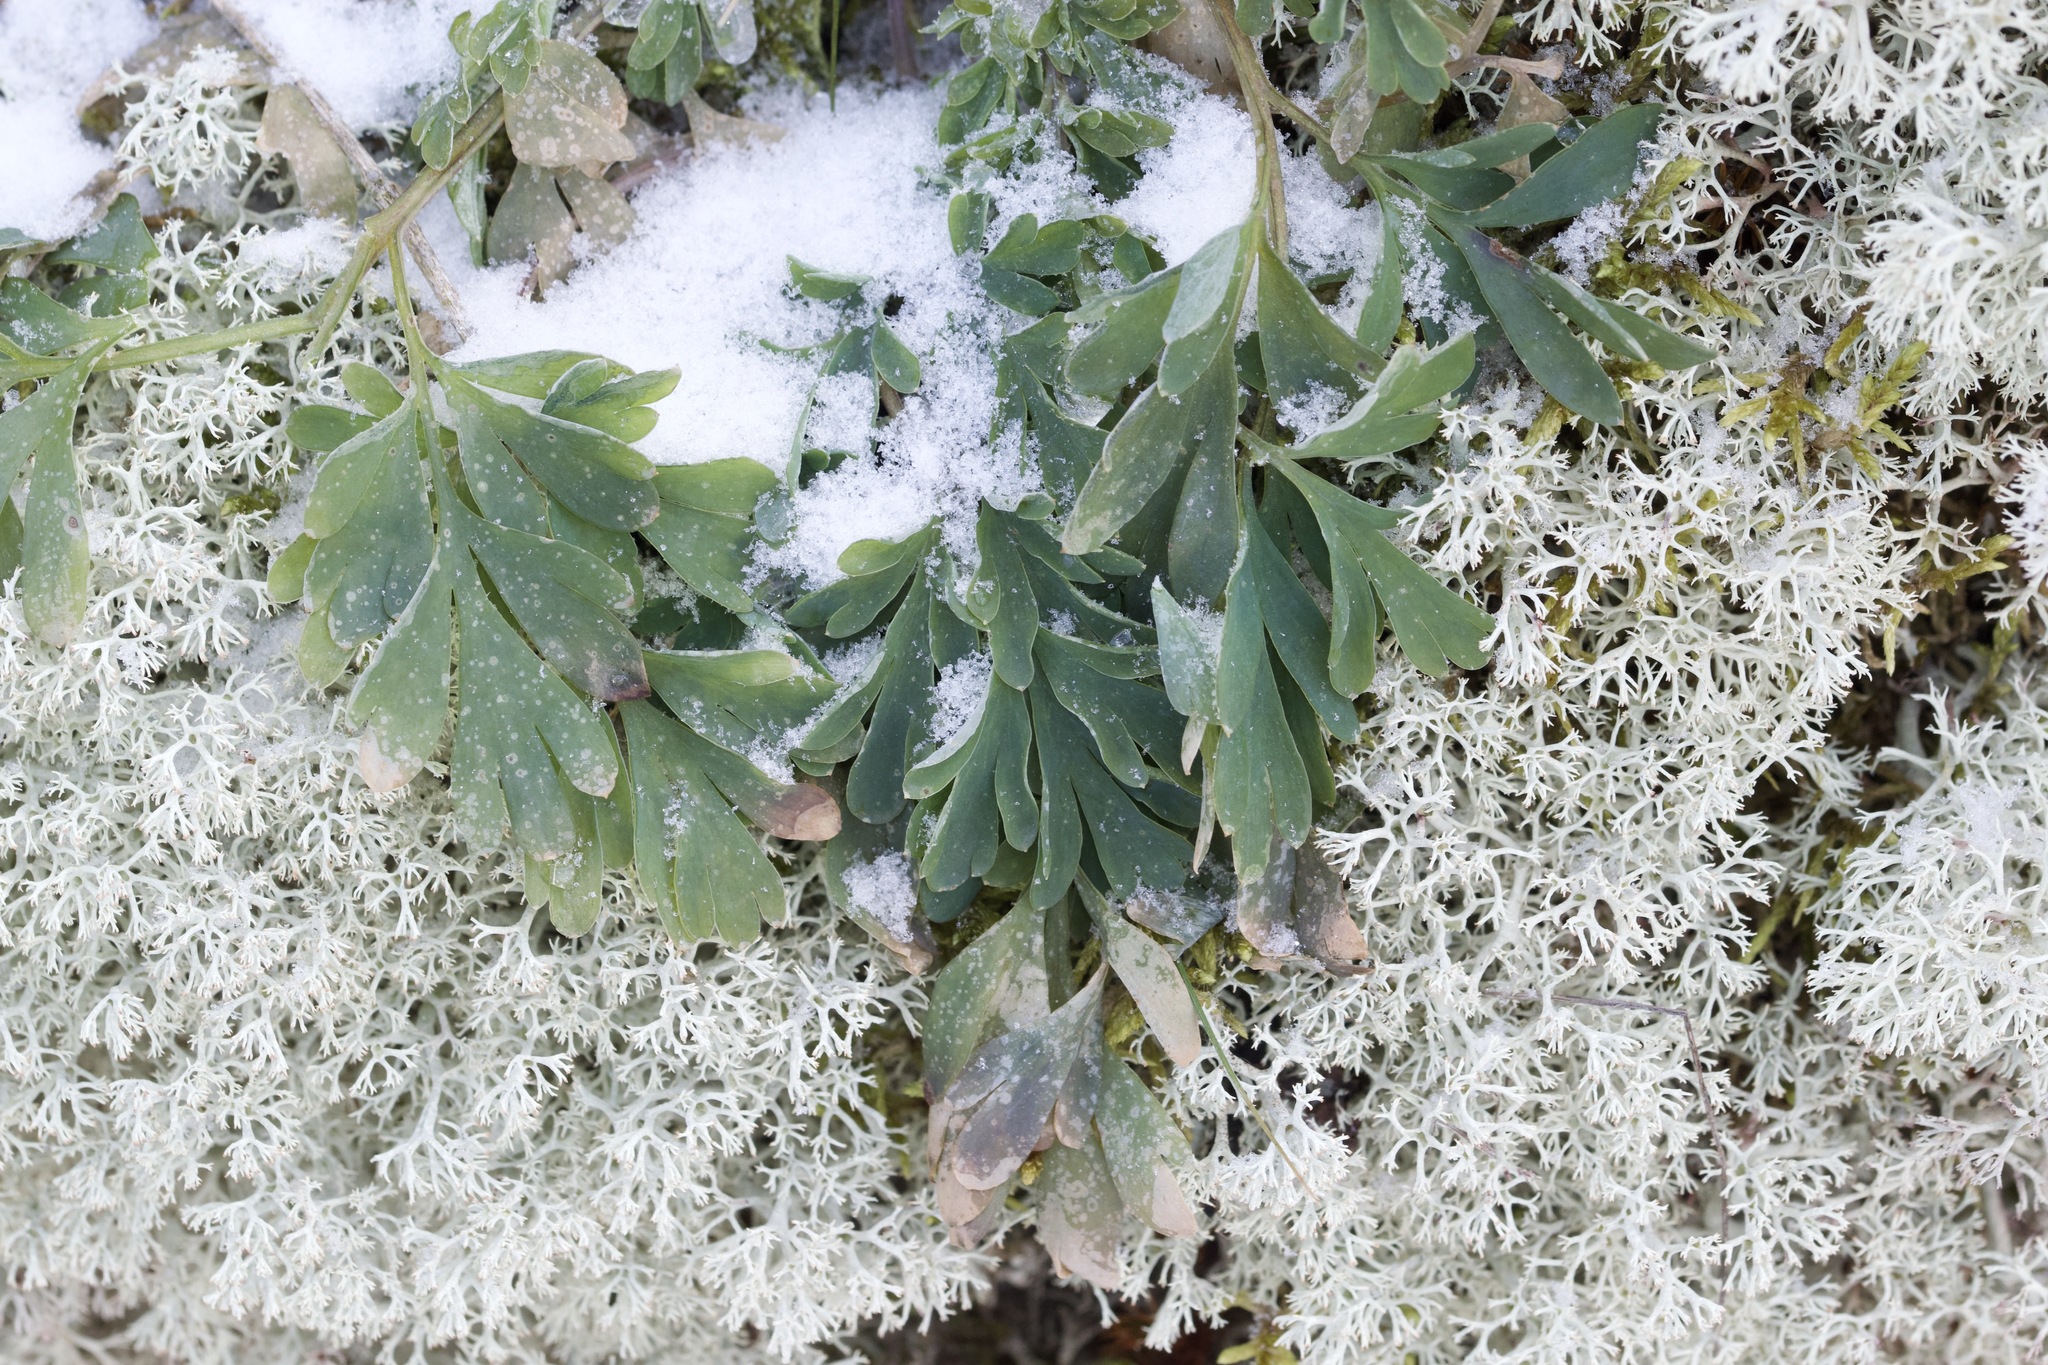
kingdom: Plantae
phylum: Tracheophyta
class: Magnoliopsida
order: Ranunculales
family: Papaveraceae
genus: Capnoides
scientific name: Capnoides sempervirens
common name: Rock harlequin
